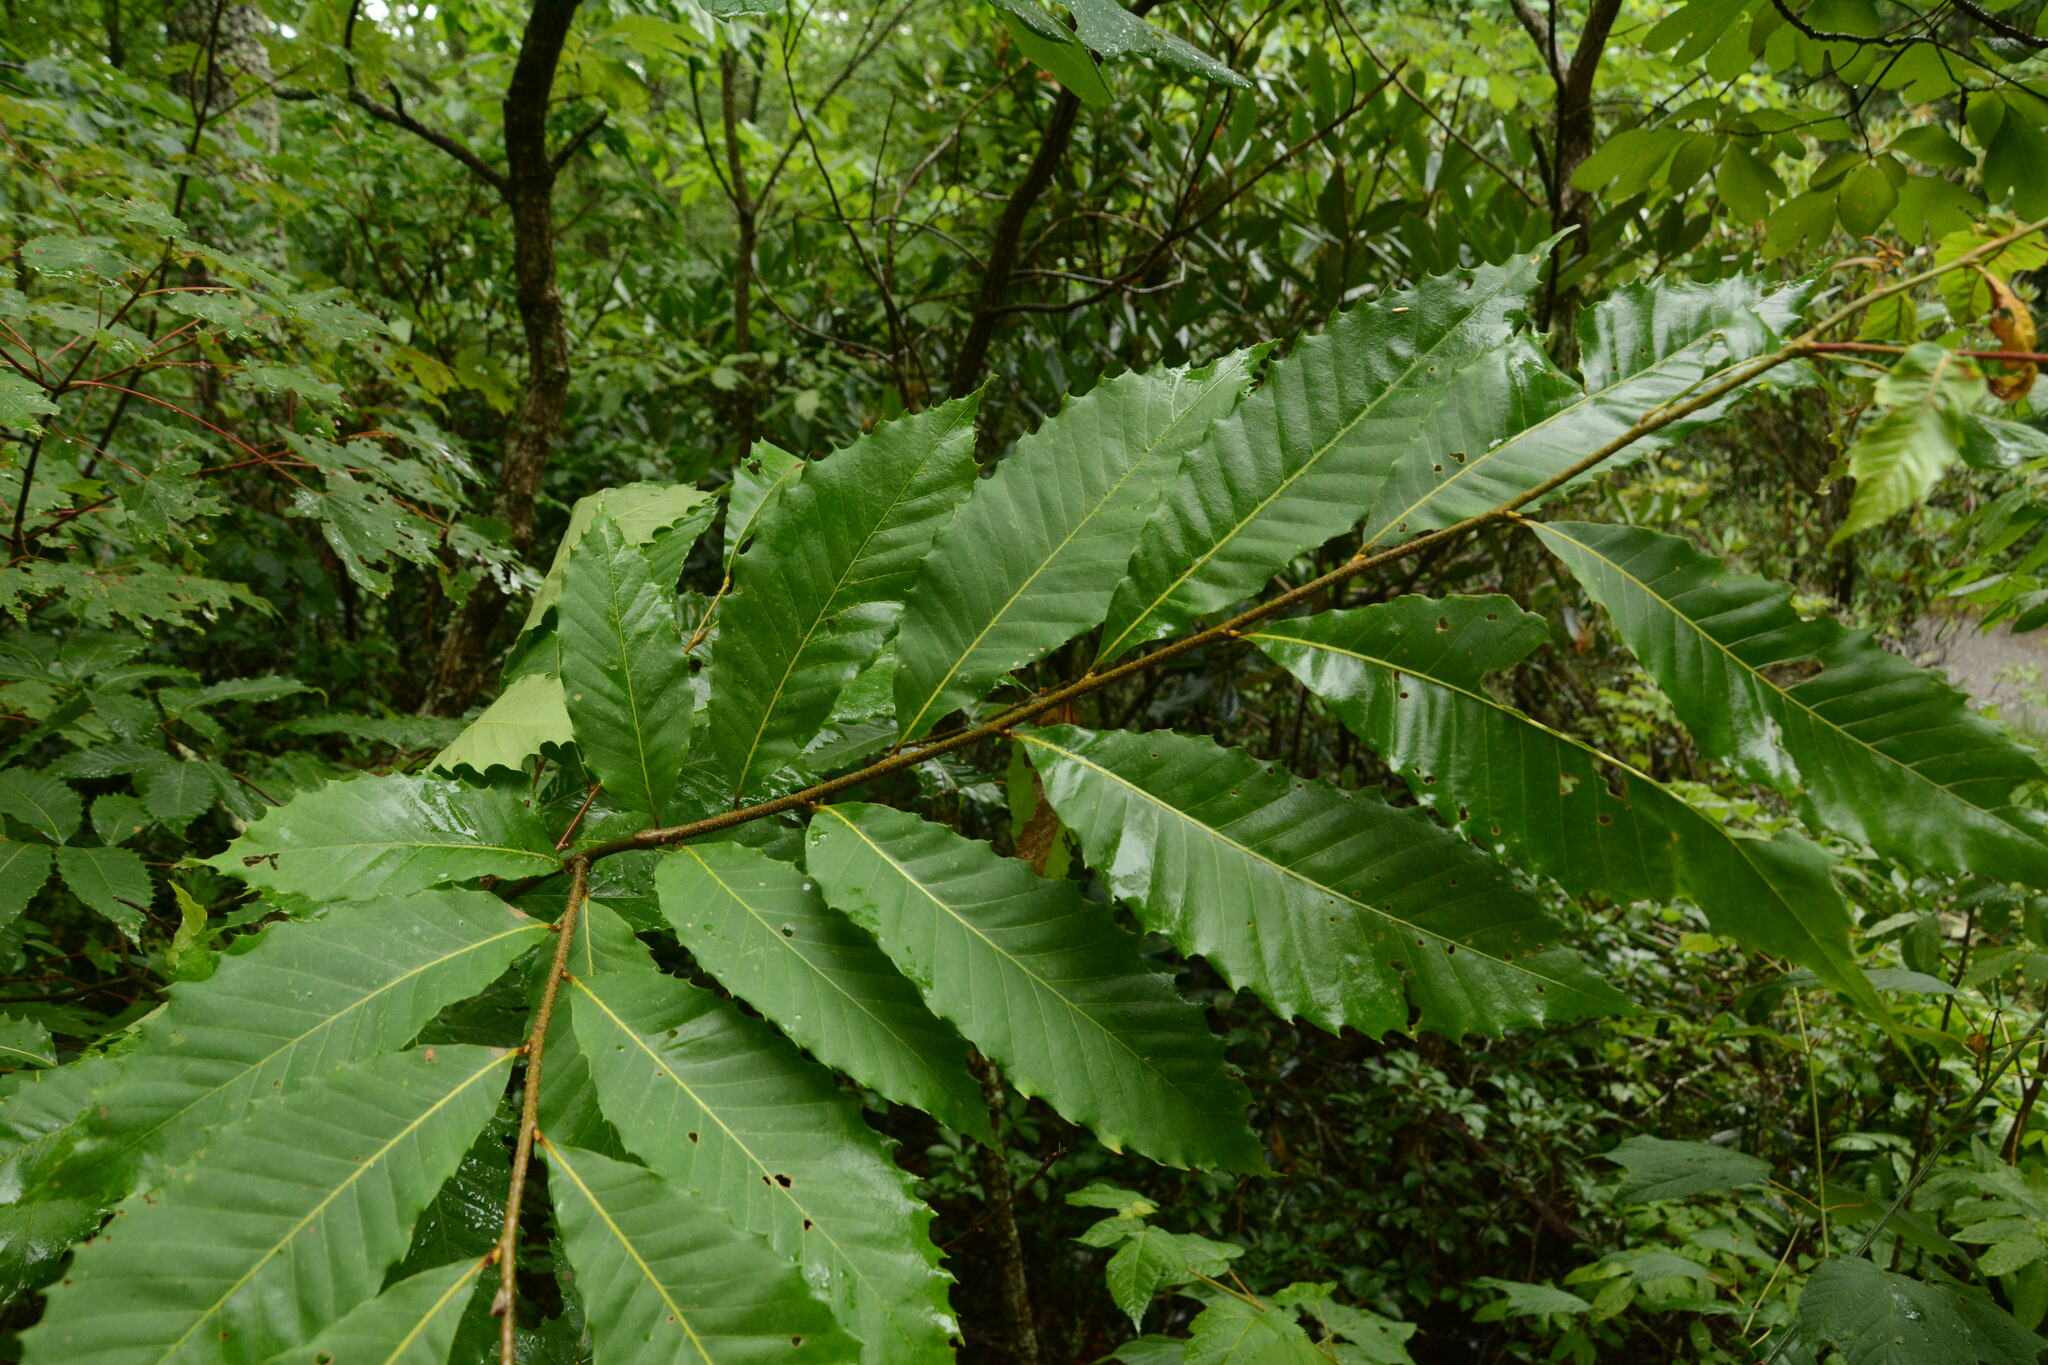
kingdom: Plantae
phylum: Tracheophyta
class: Magnoliopsida
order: Fagales
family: Fagaceae
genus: Castanea
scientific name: Castanea dentata
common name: American chestnut
